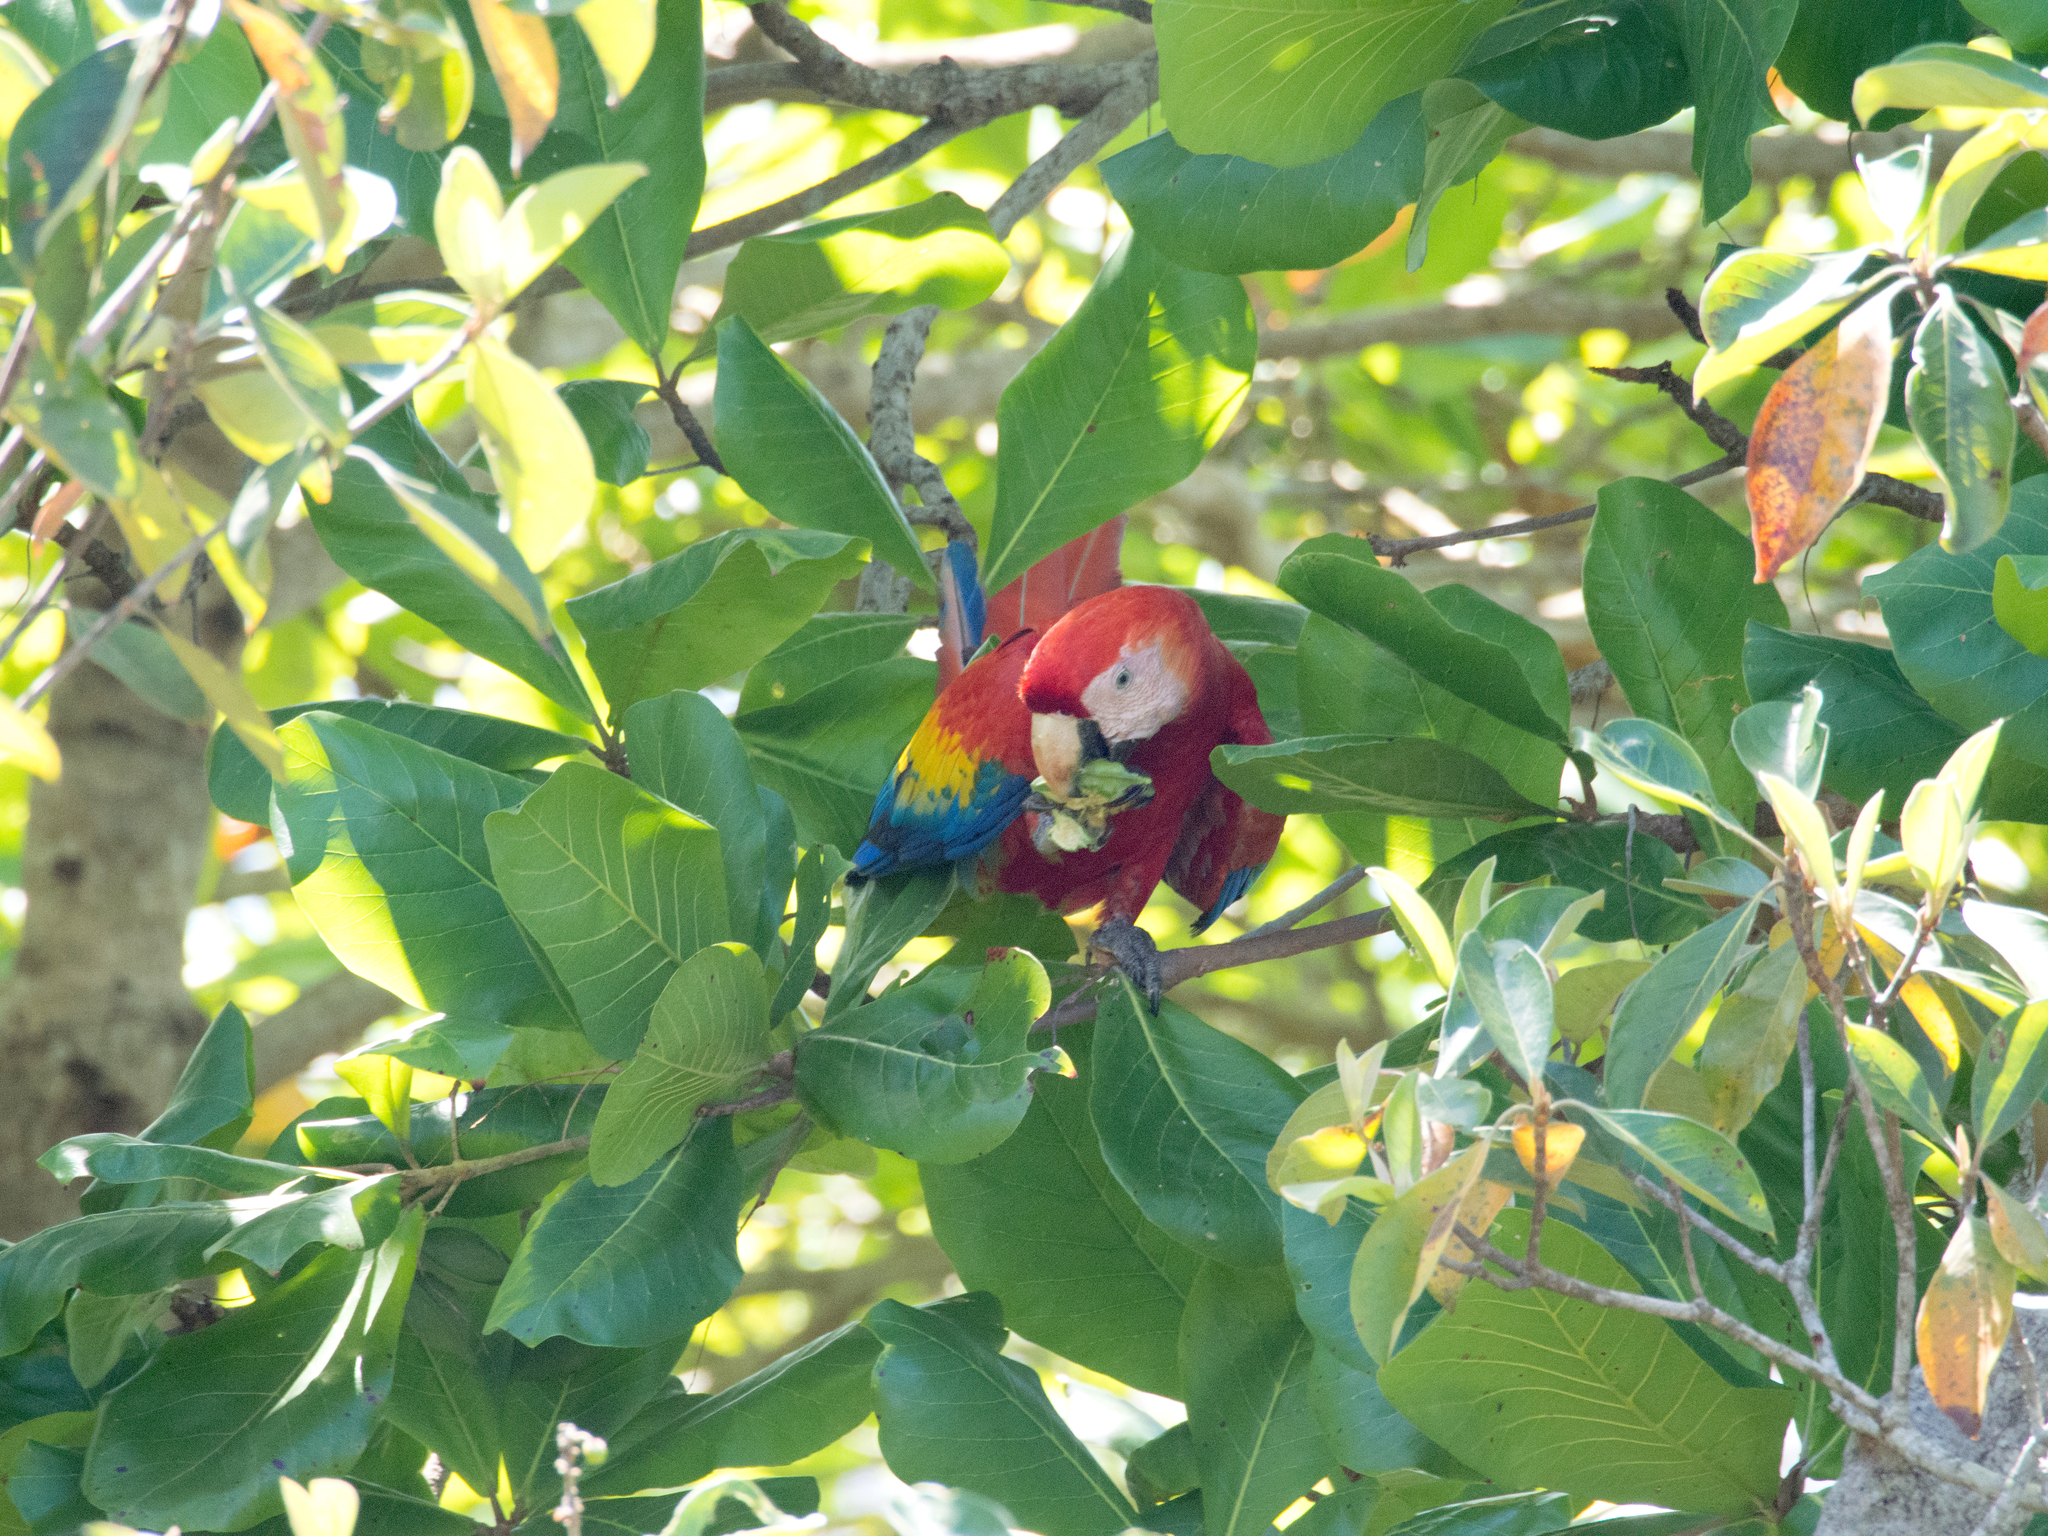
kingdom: Animalia
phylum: Chordata
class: Aves
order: Psittaciformes
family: Psittacidae
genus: Ara
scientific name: Ara macao
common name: Scarlet macaw
